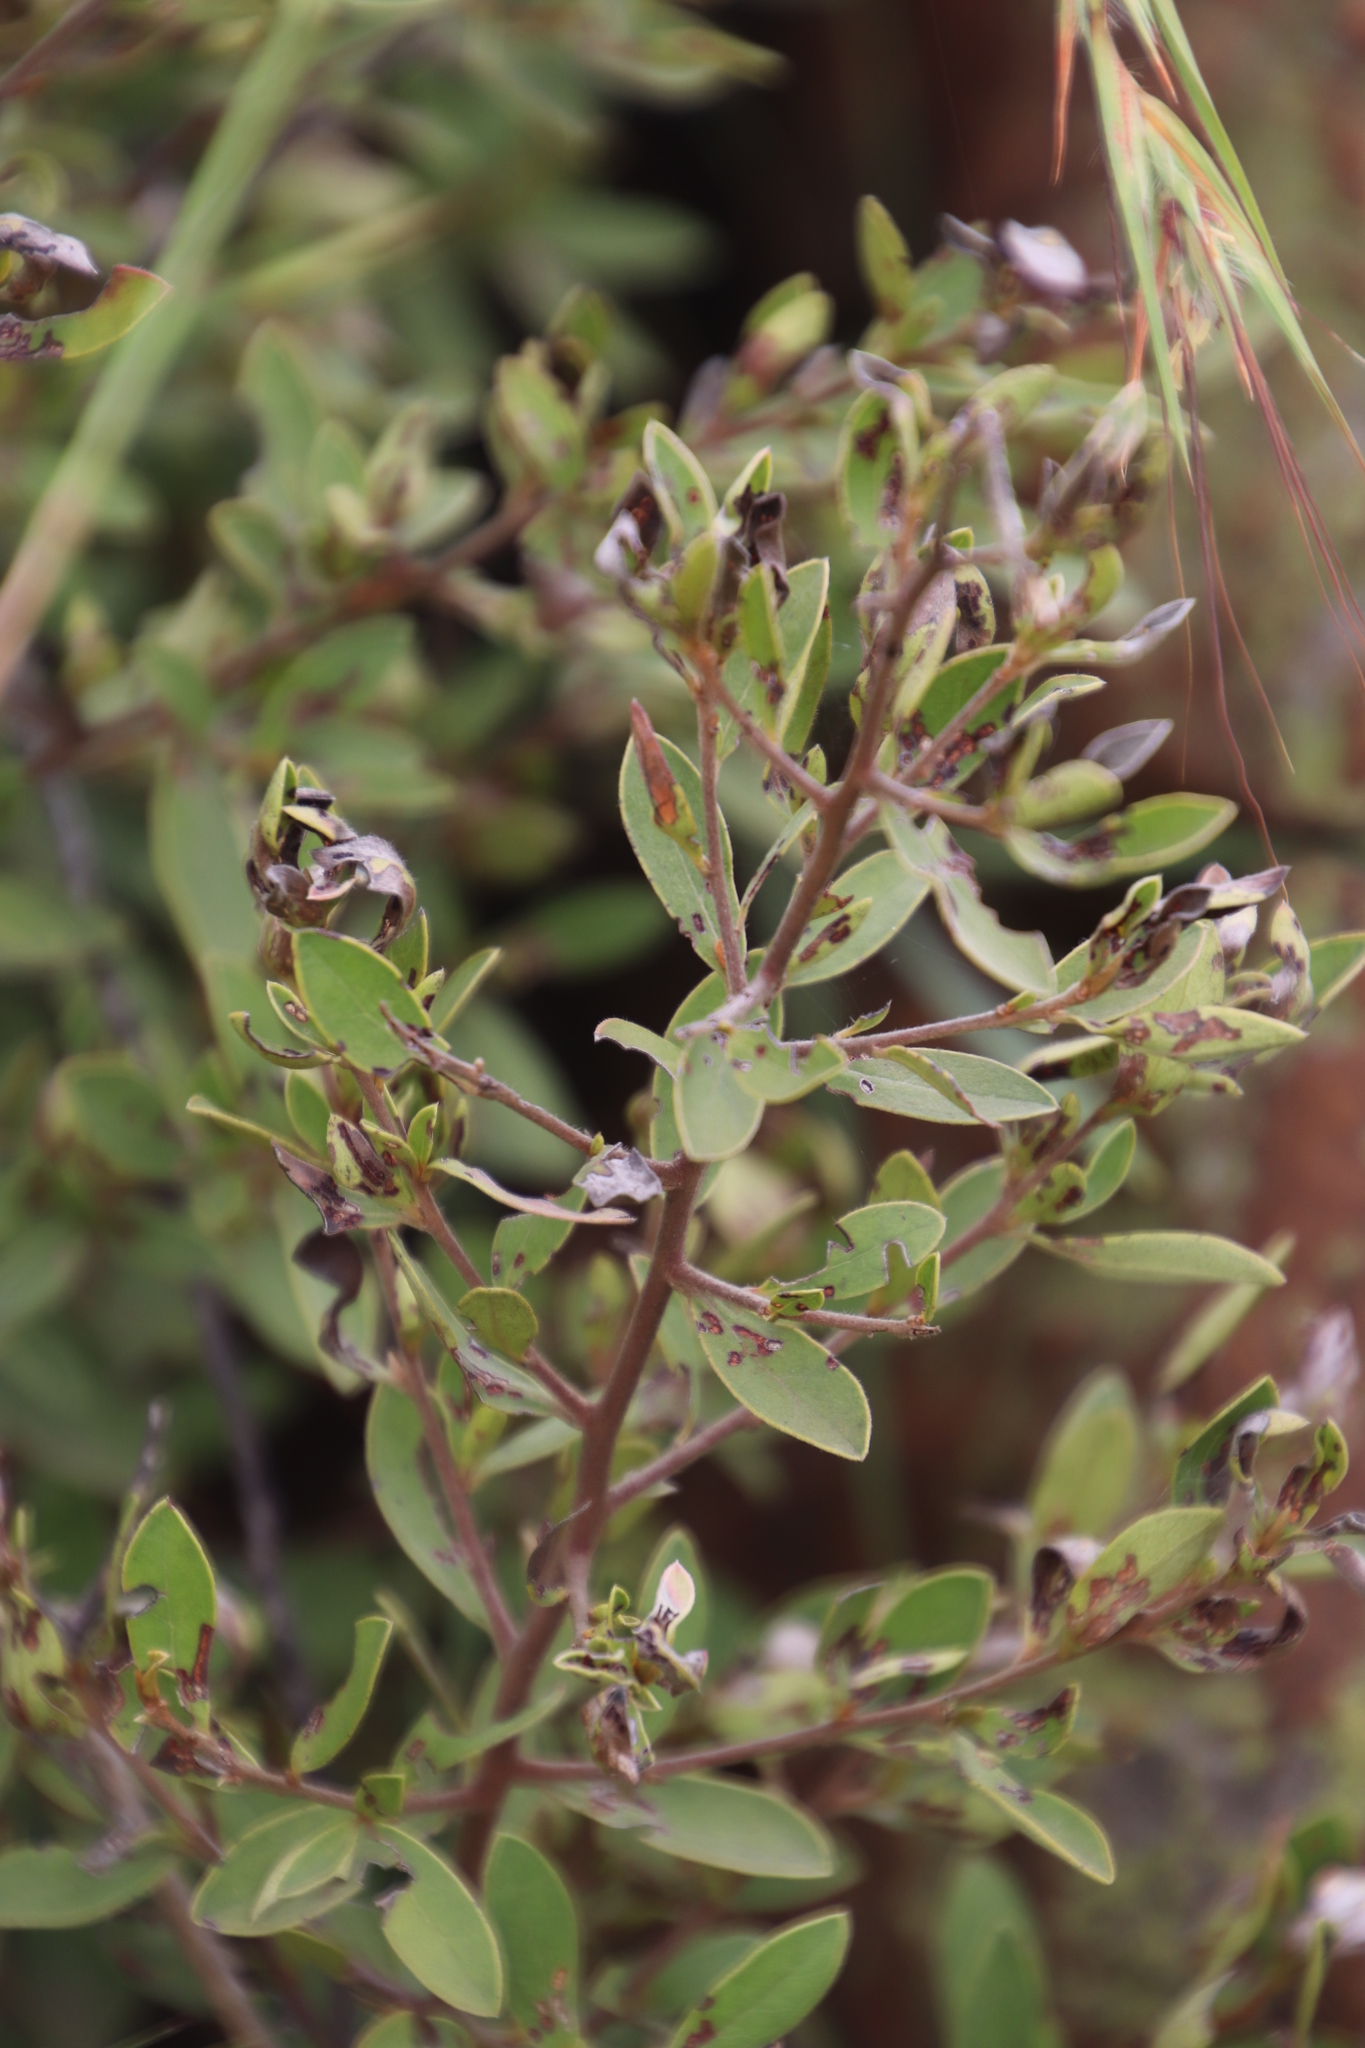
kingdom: Plantae
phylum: Tracheophyta
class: Magnoliopsida
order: Ericales
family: Ebenaceae
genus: Diospyros
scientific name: Diospyros lycioides
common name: Red star apple
